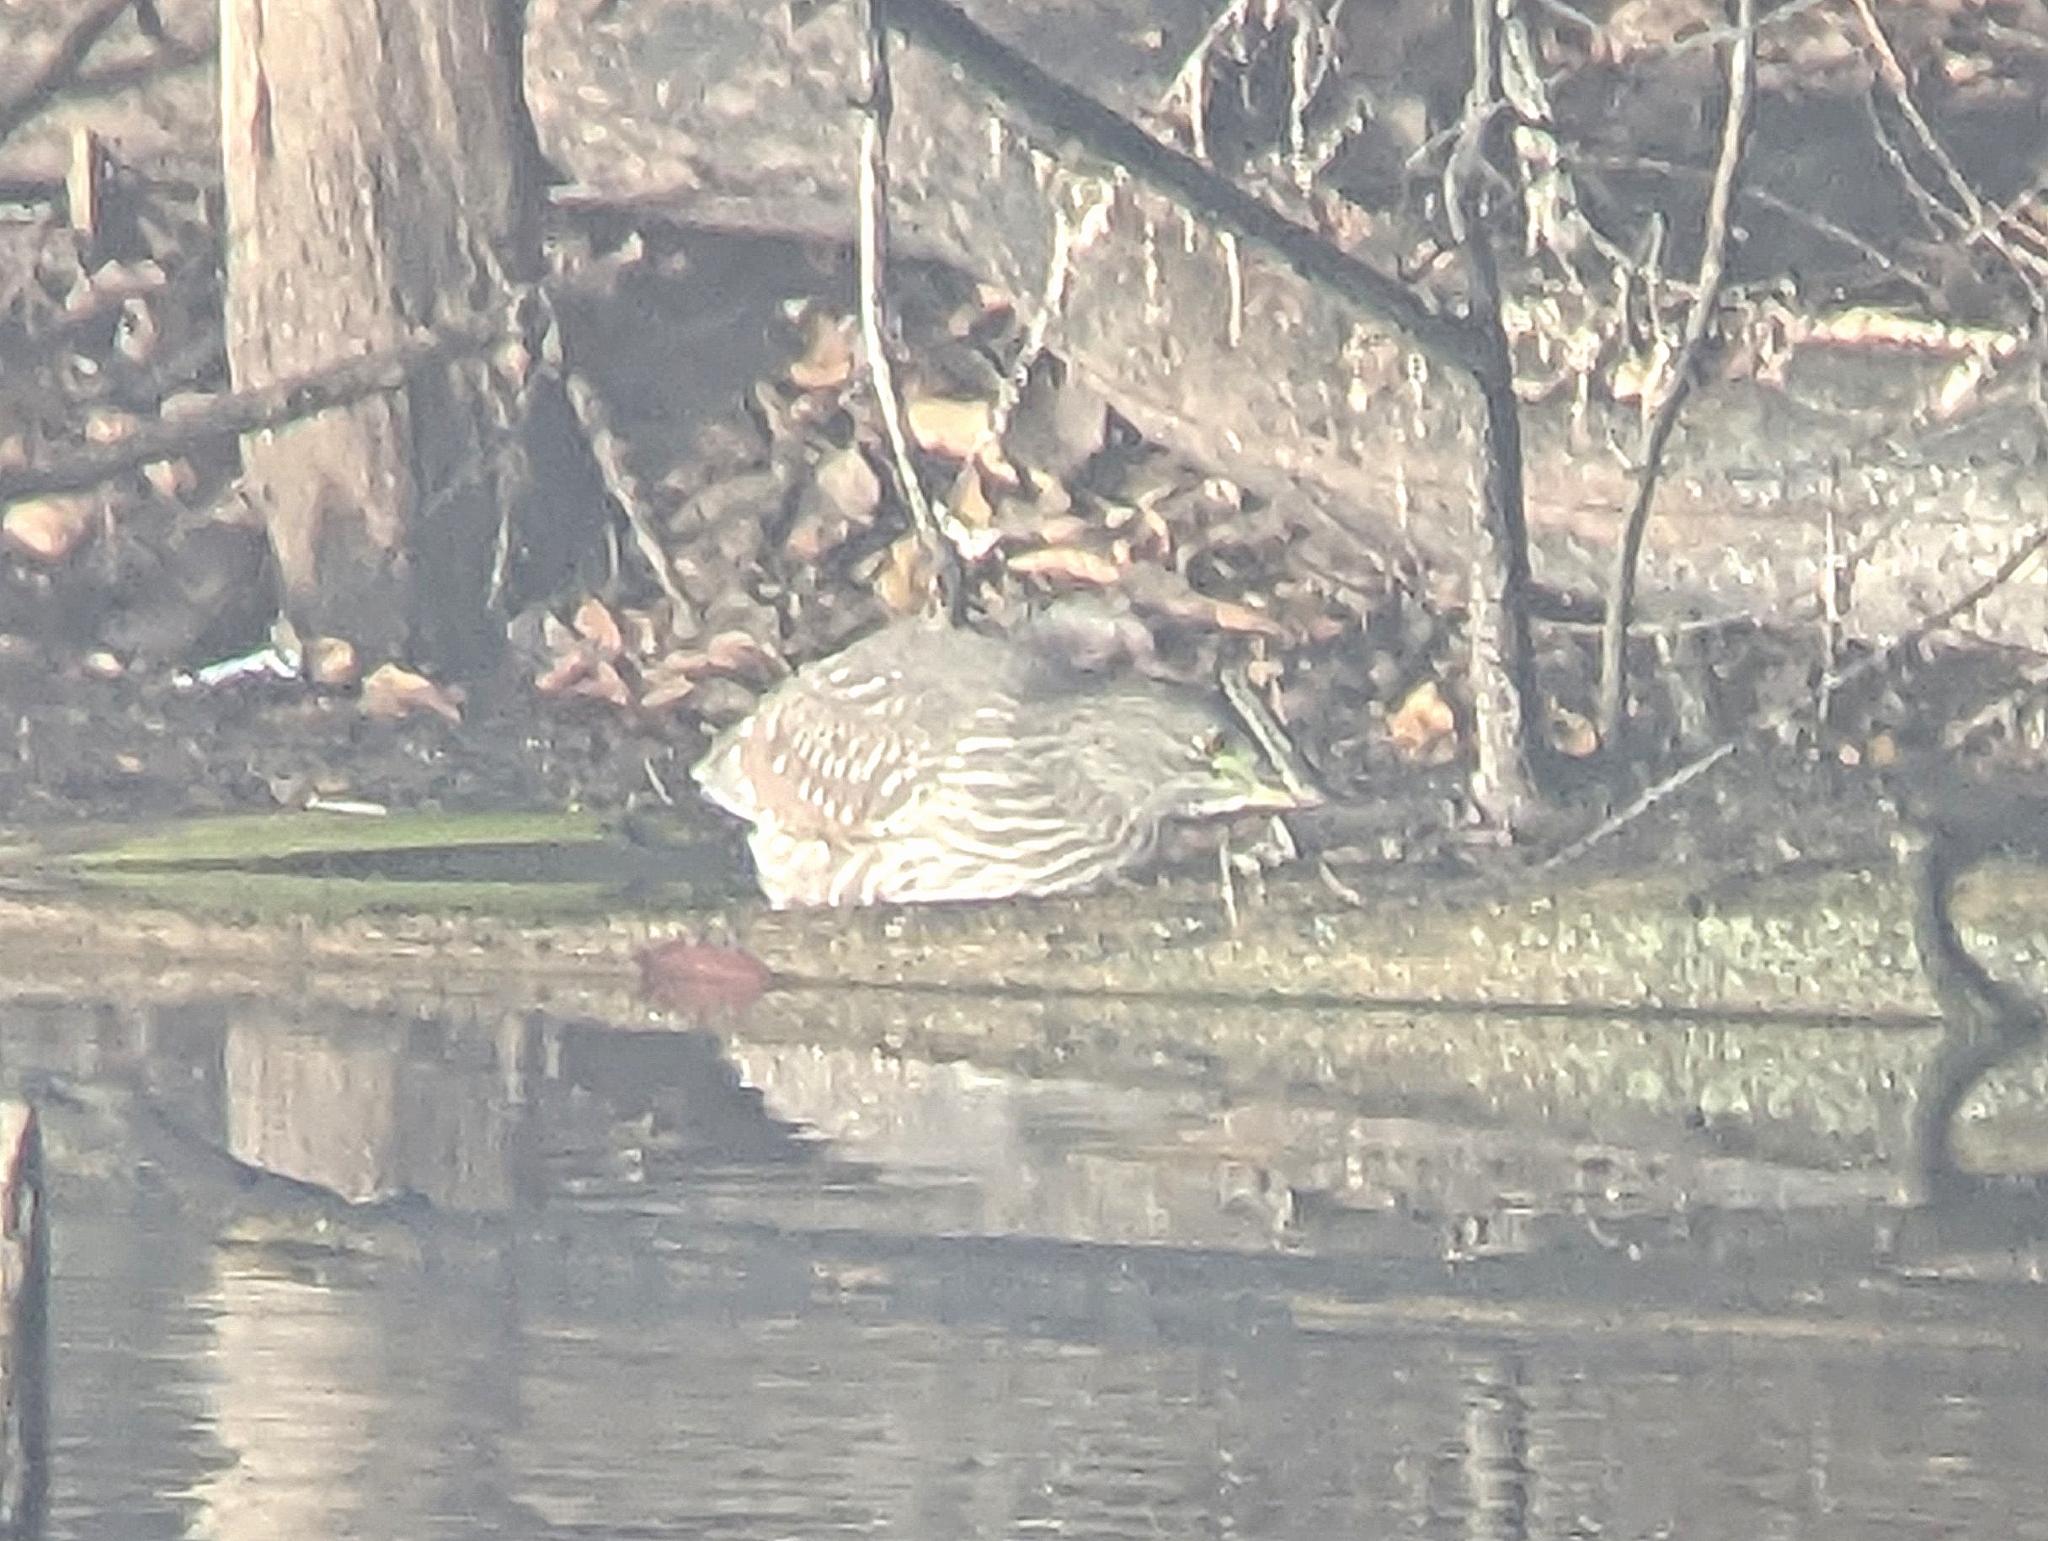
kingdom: Animalia
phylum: Chordata
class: Aves
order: Pelecaniformes
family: Ardeidae
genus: Nycticorax
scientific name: Nycticorax nycticorax
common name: Black-crowned night heron
